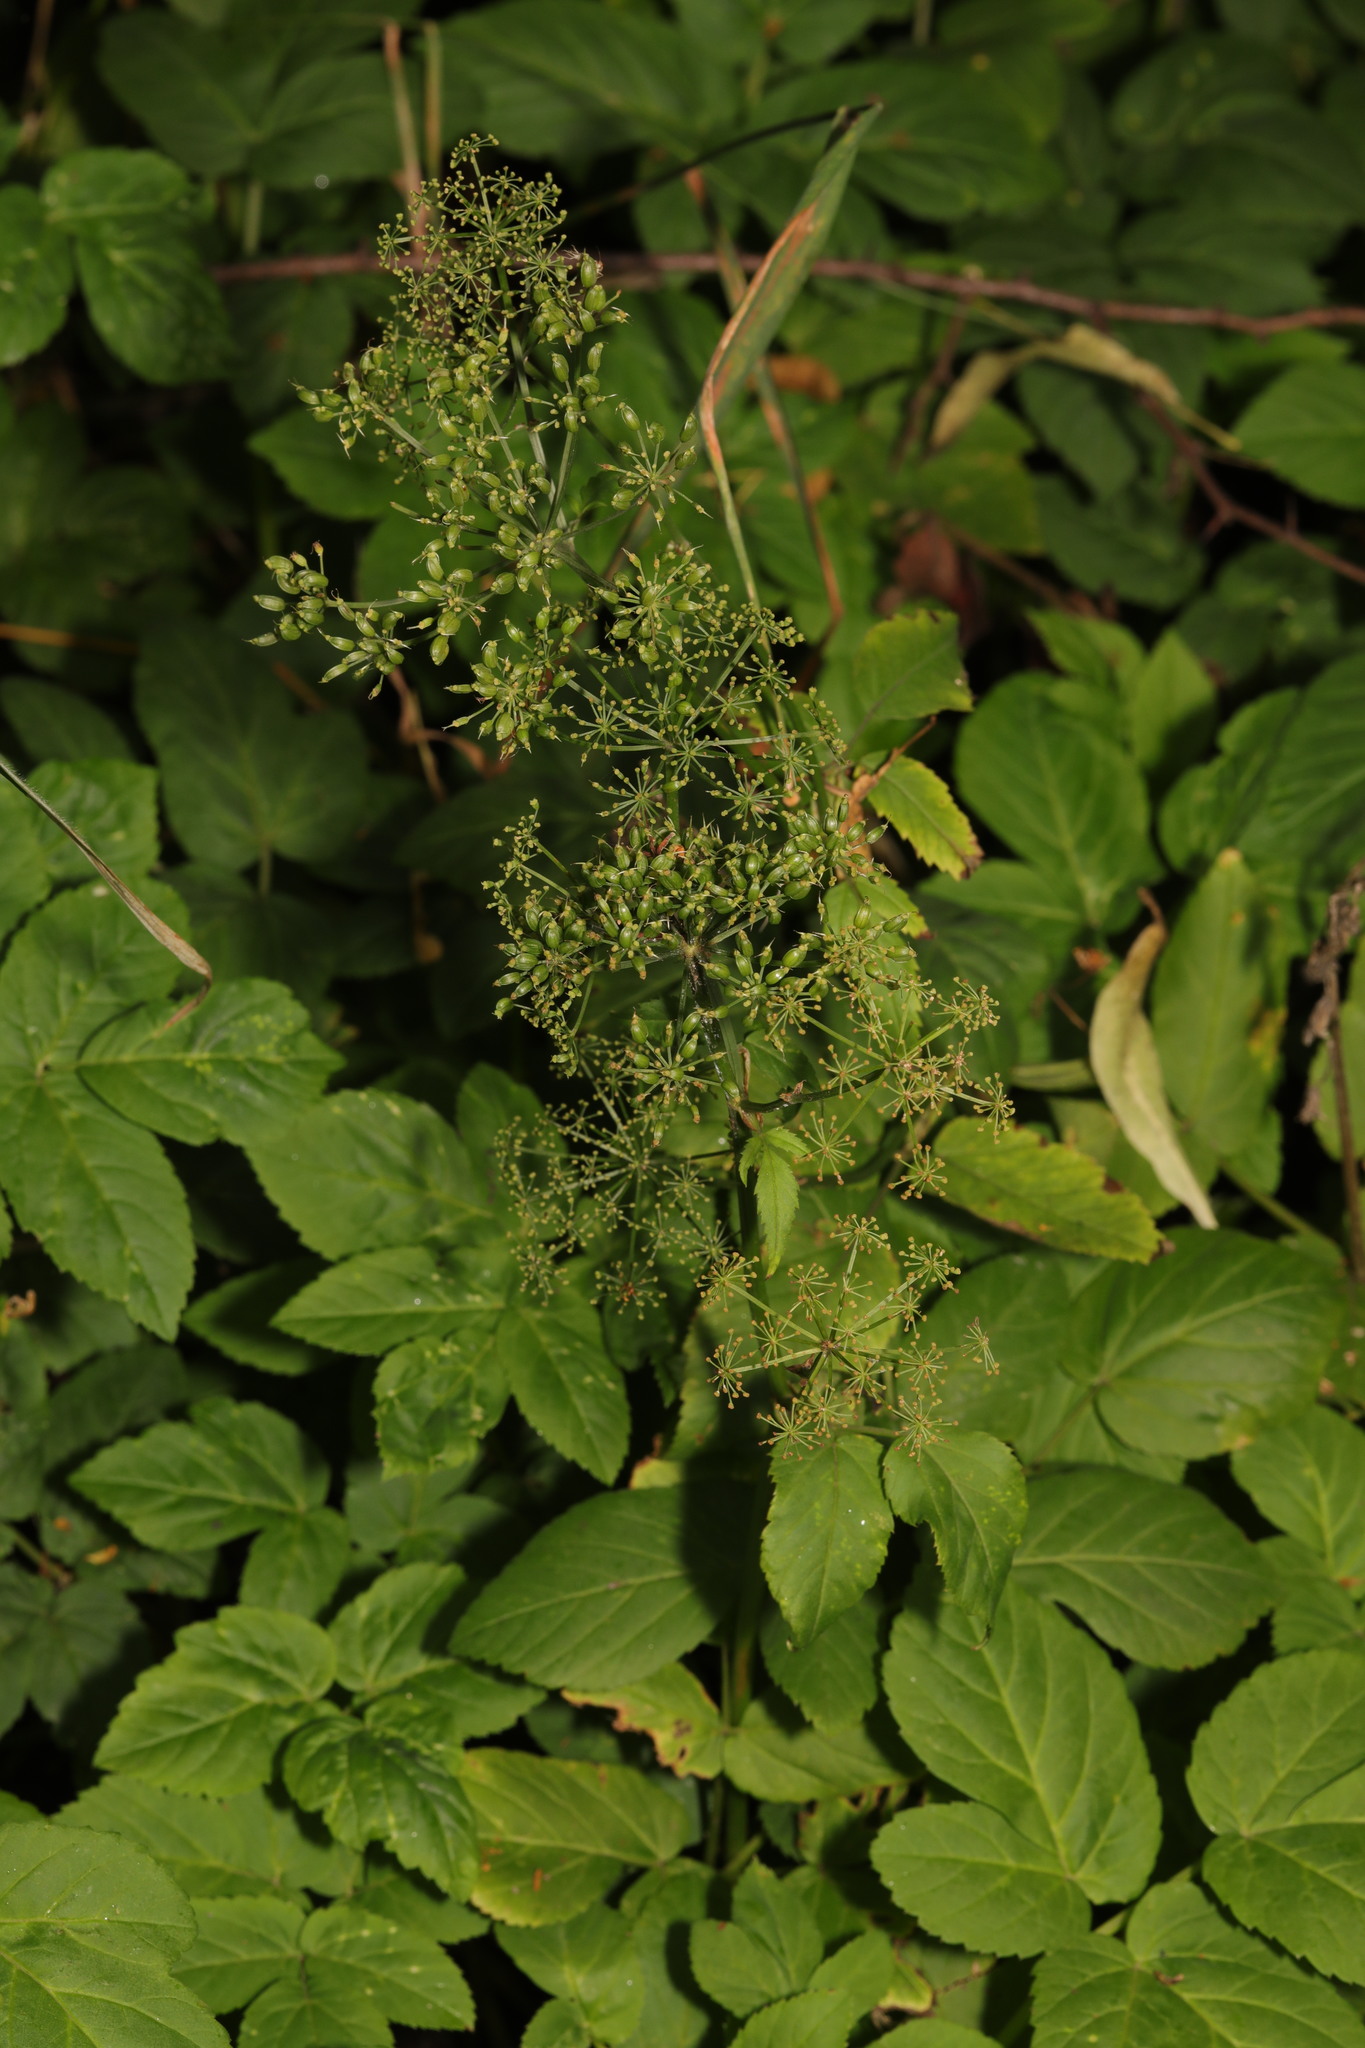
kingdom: Plantae
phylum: Tracheophyta
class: Magnoliopsida
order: Apiales
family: Apiaceae
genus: Aegopodium
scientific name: Aegopodium podagraria
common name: Ground-elder
